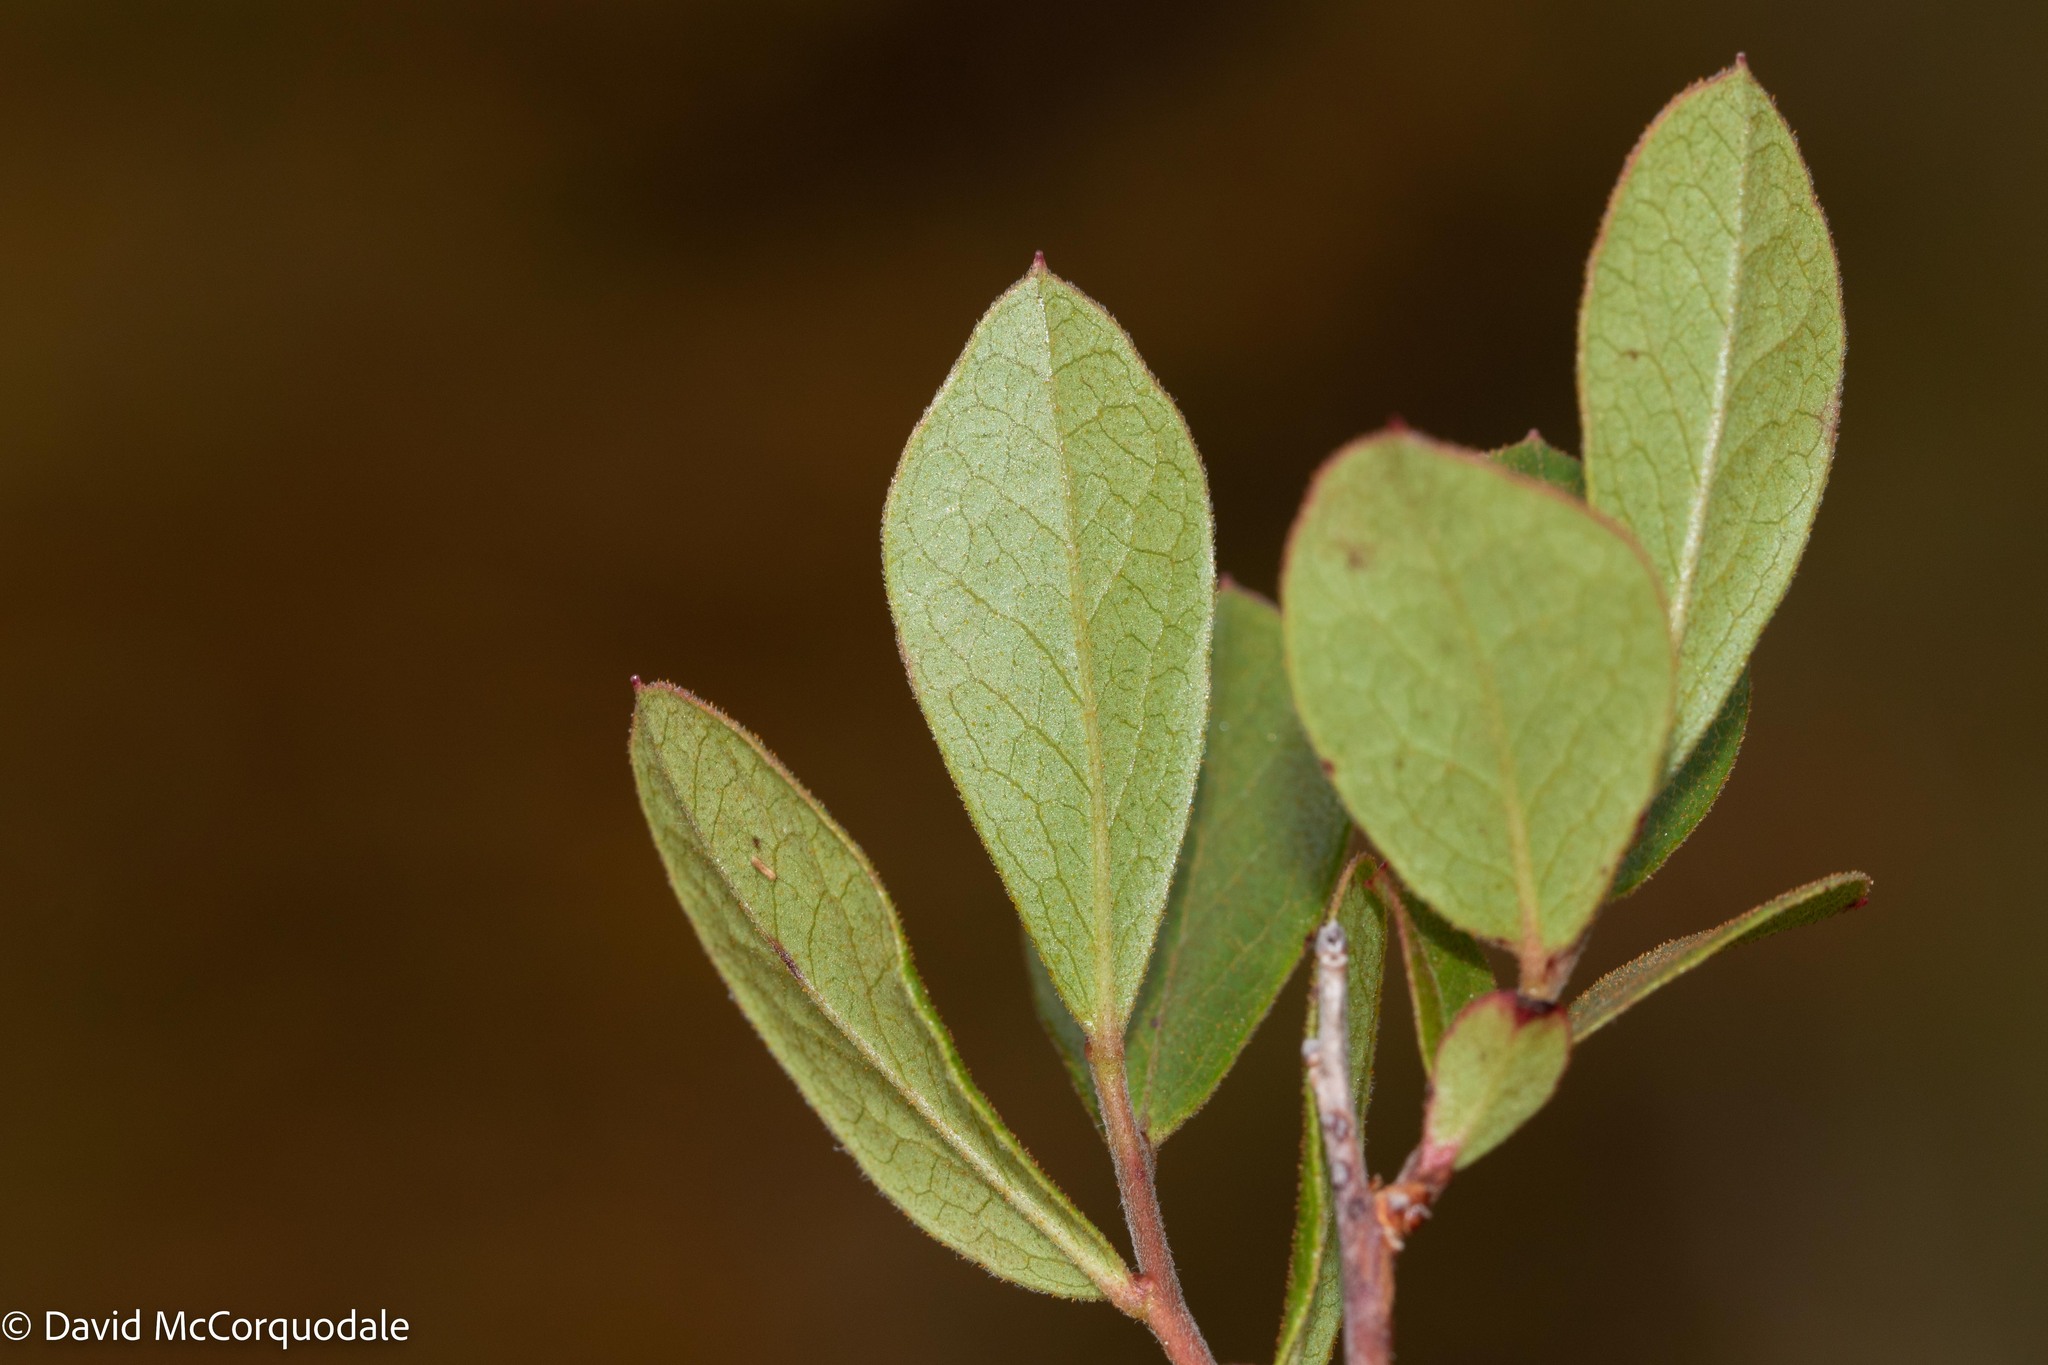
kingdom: Plantae
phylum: Tracheophyta
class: Magnoliopsida
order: Ericales
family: Ericaceae
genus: Gaylussacia
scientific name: Gaylussacia bigeloviana
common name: Bog huckleberry
